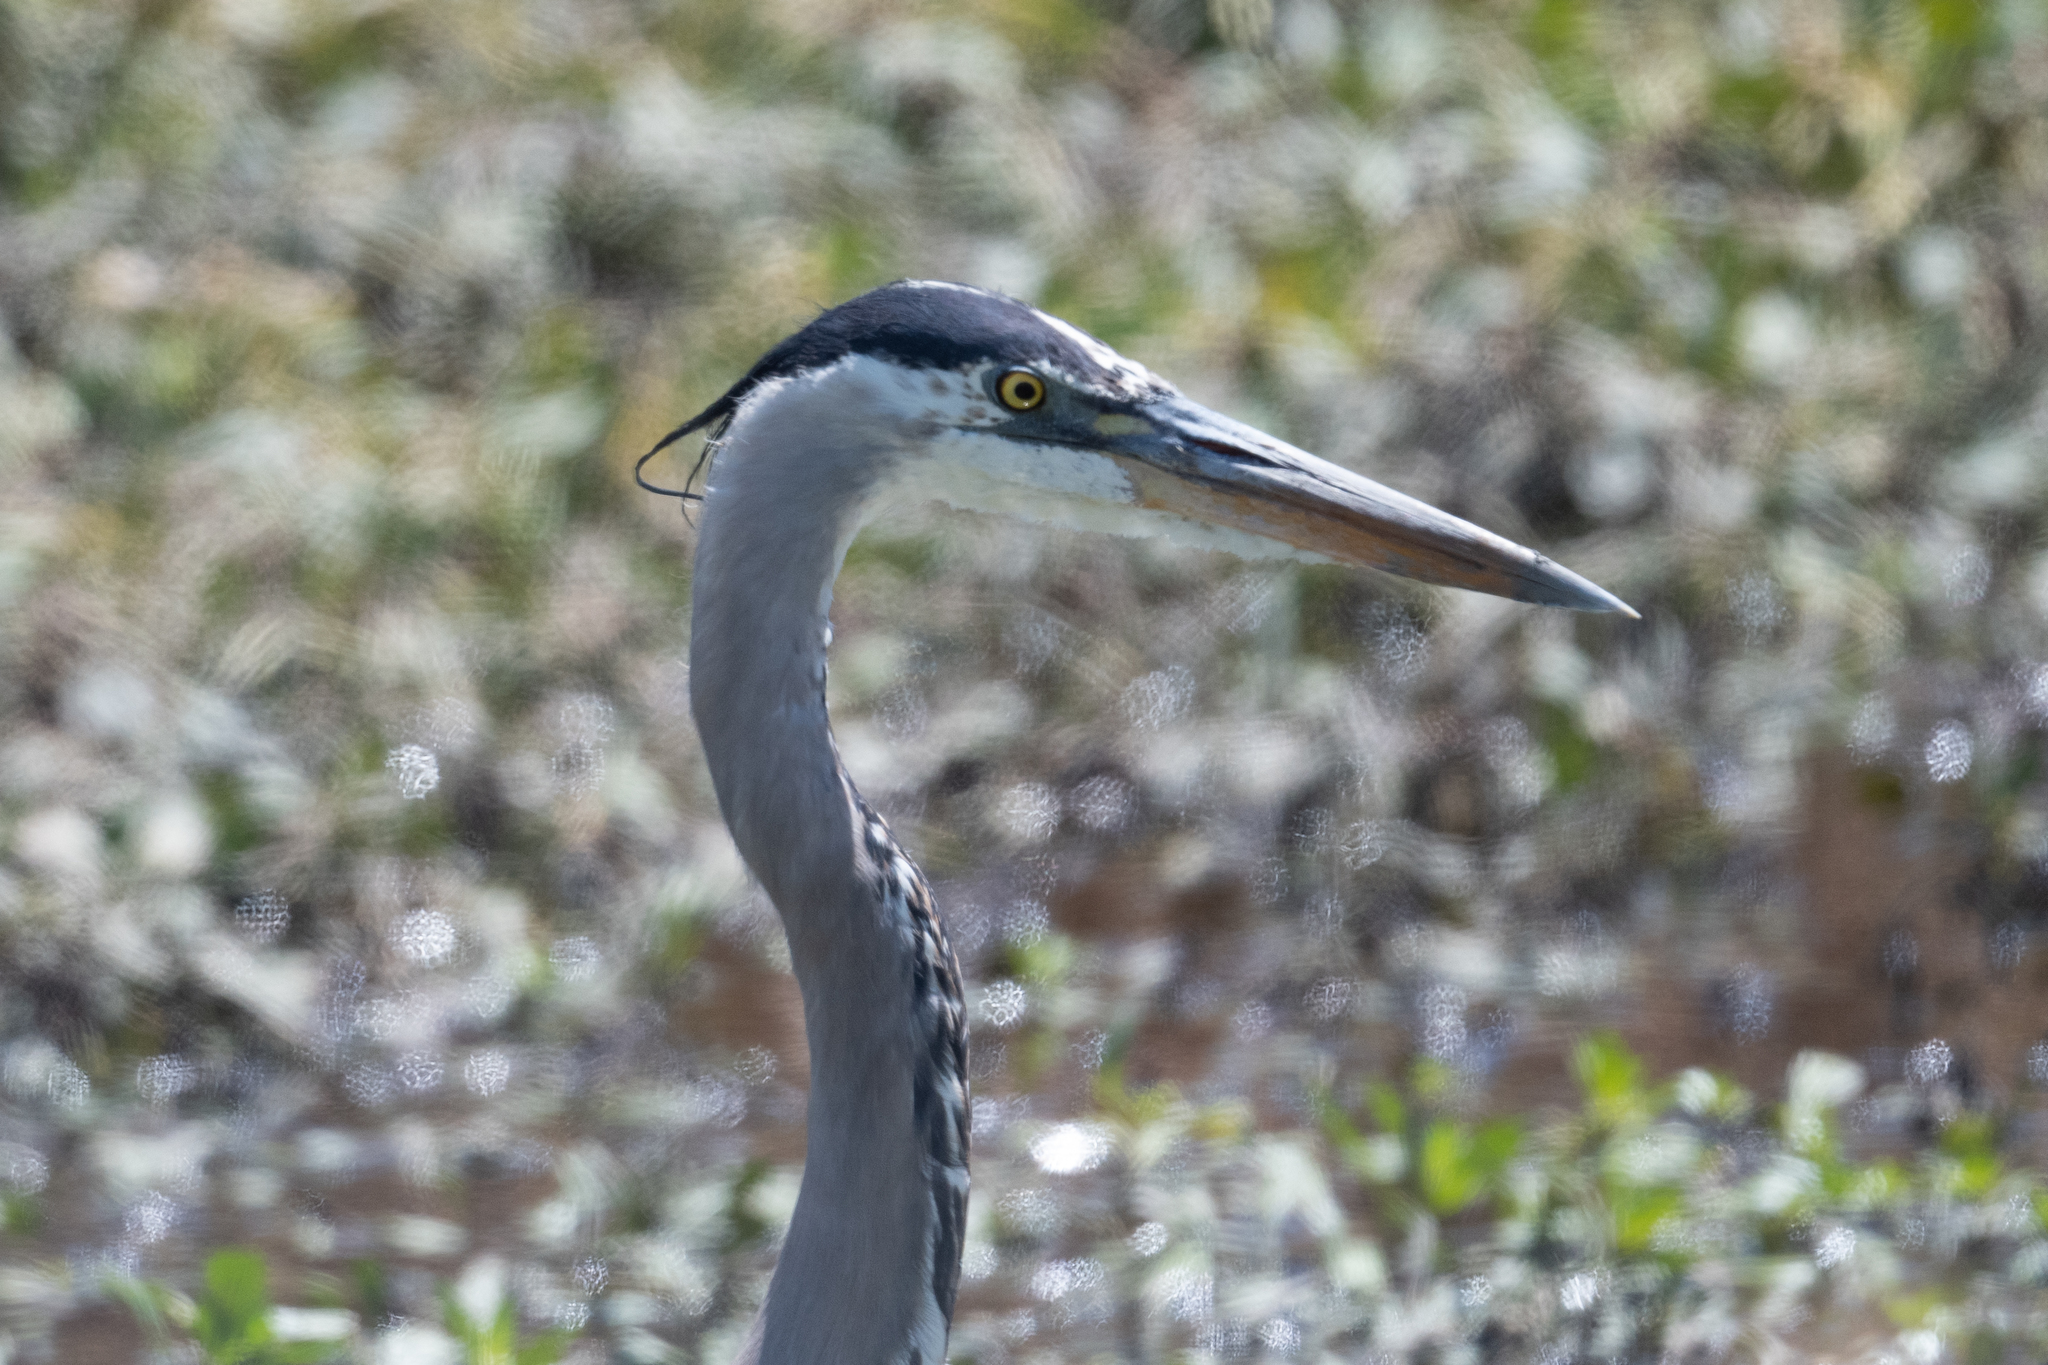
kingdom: Animalia
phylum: Chordata
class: Aves
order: Pelecaniformes
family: Ardeidae
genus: Ardea
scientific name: Ardea herodias
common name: Great blue heron
